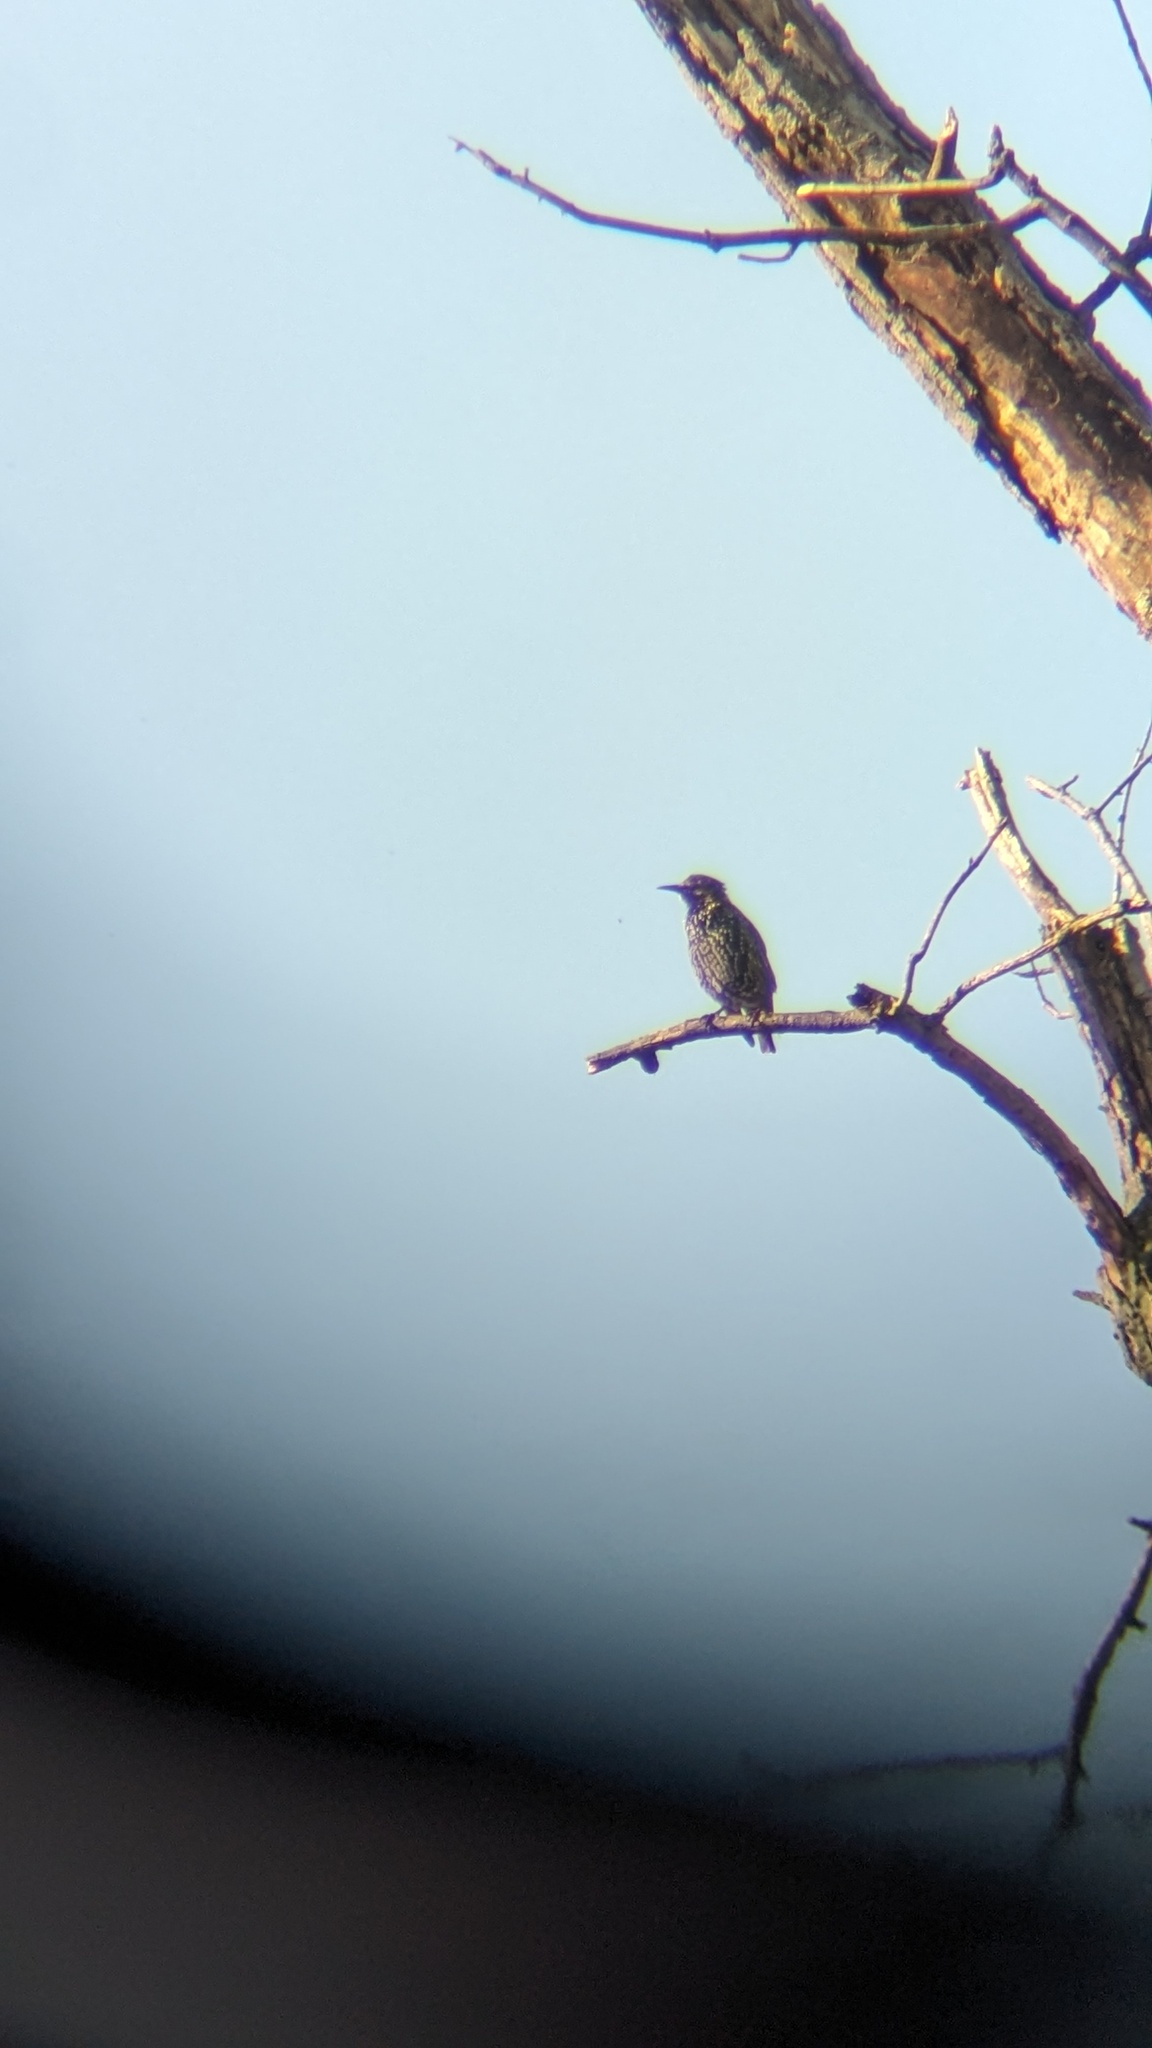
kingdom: Animalia
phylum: Chordata
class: Aves
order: Passeriformes
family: Sturnidae
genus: Sturnus
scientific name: Sturnus vulgaris
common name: Common starling
